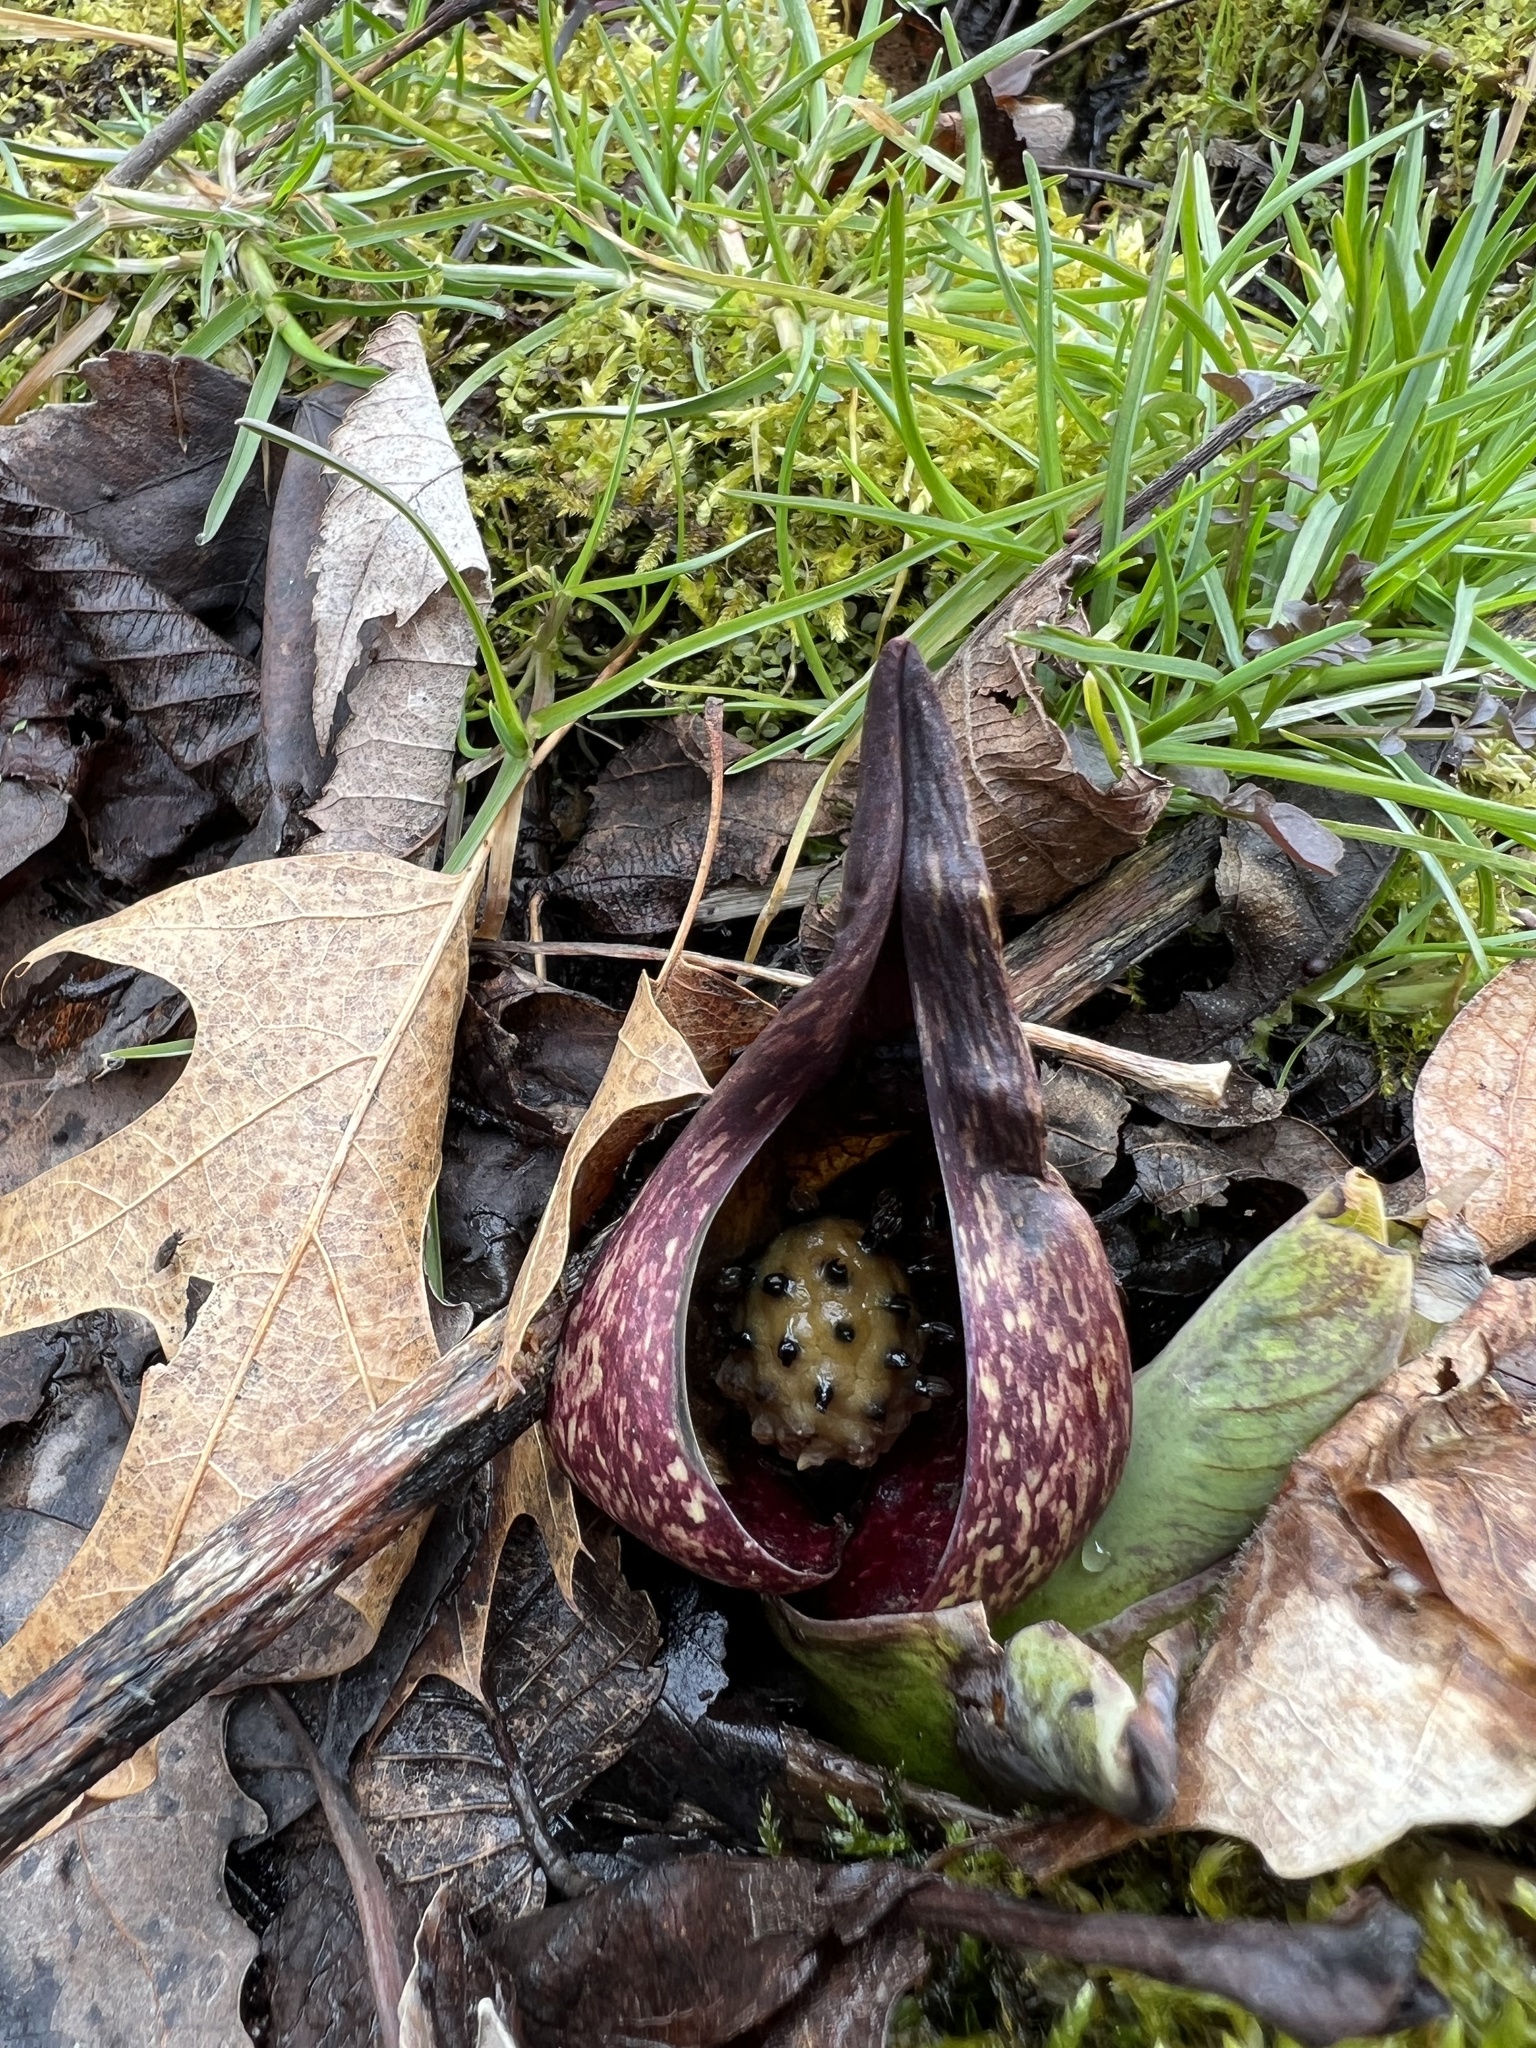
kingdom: Plantae
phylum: Tracheophyta
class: Liliopsida
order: Alismatales
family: Araceae
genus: Symplocarpus
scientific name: Symplocarpus foetidus
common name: Eastern skunk cabbage
